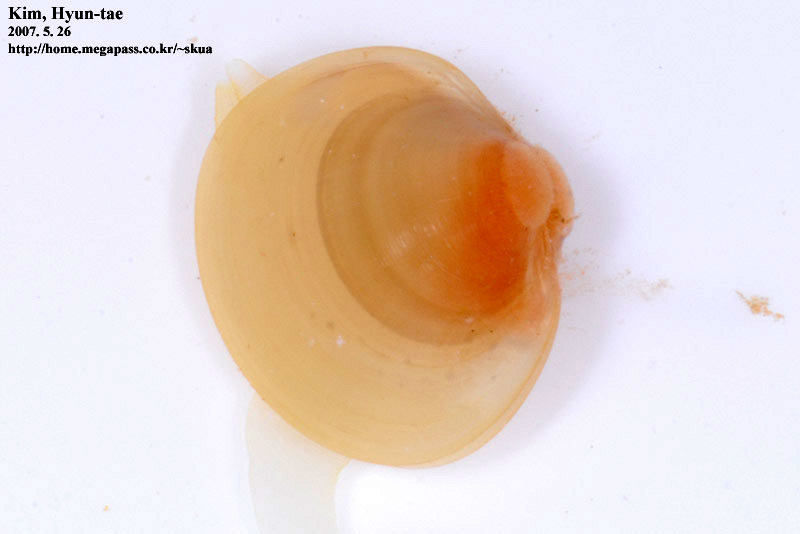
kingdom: Animalia
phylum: Mollusca
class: Bivalvia
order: Sphaeriida
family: Sphaeriidae
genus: Musculium
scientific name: Musculium japonicum
